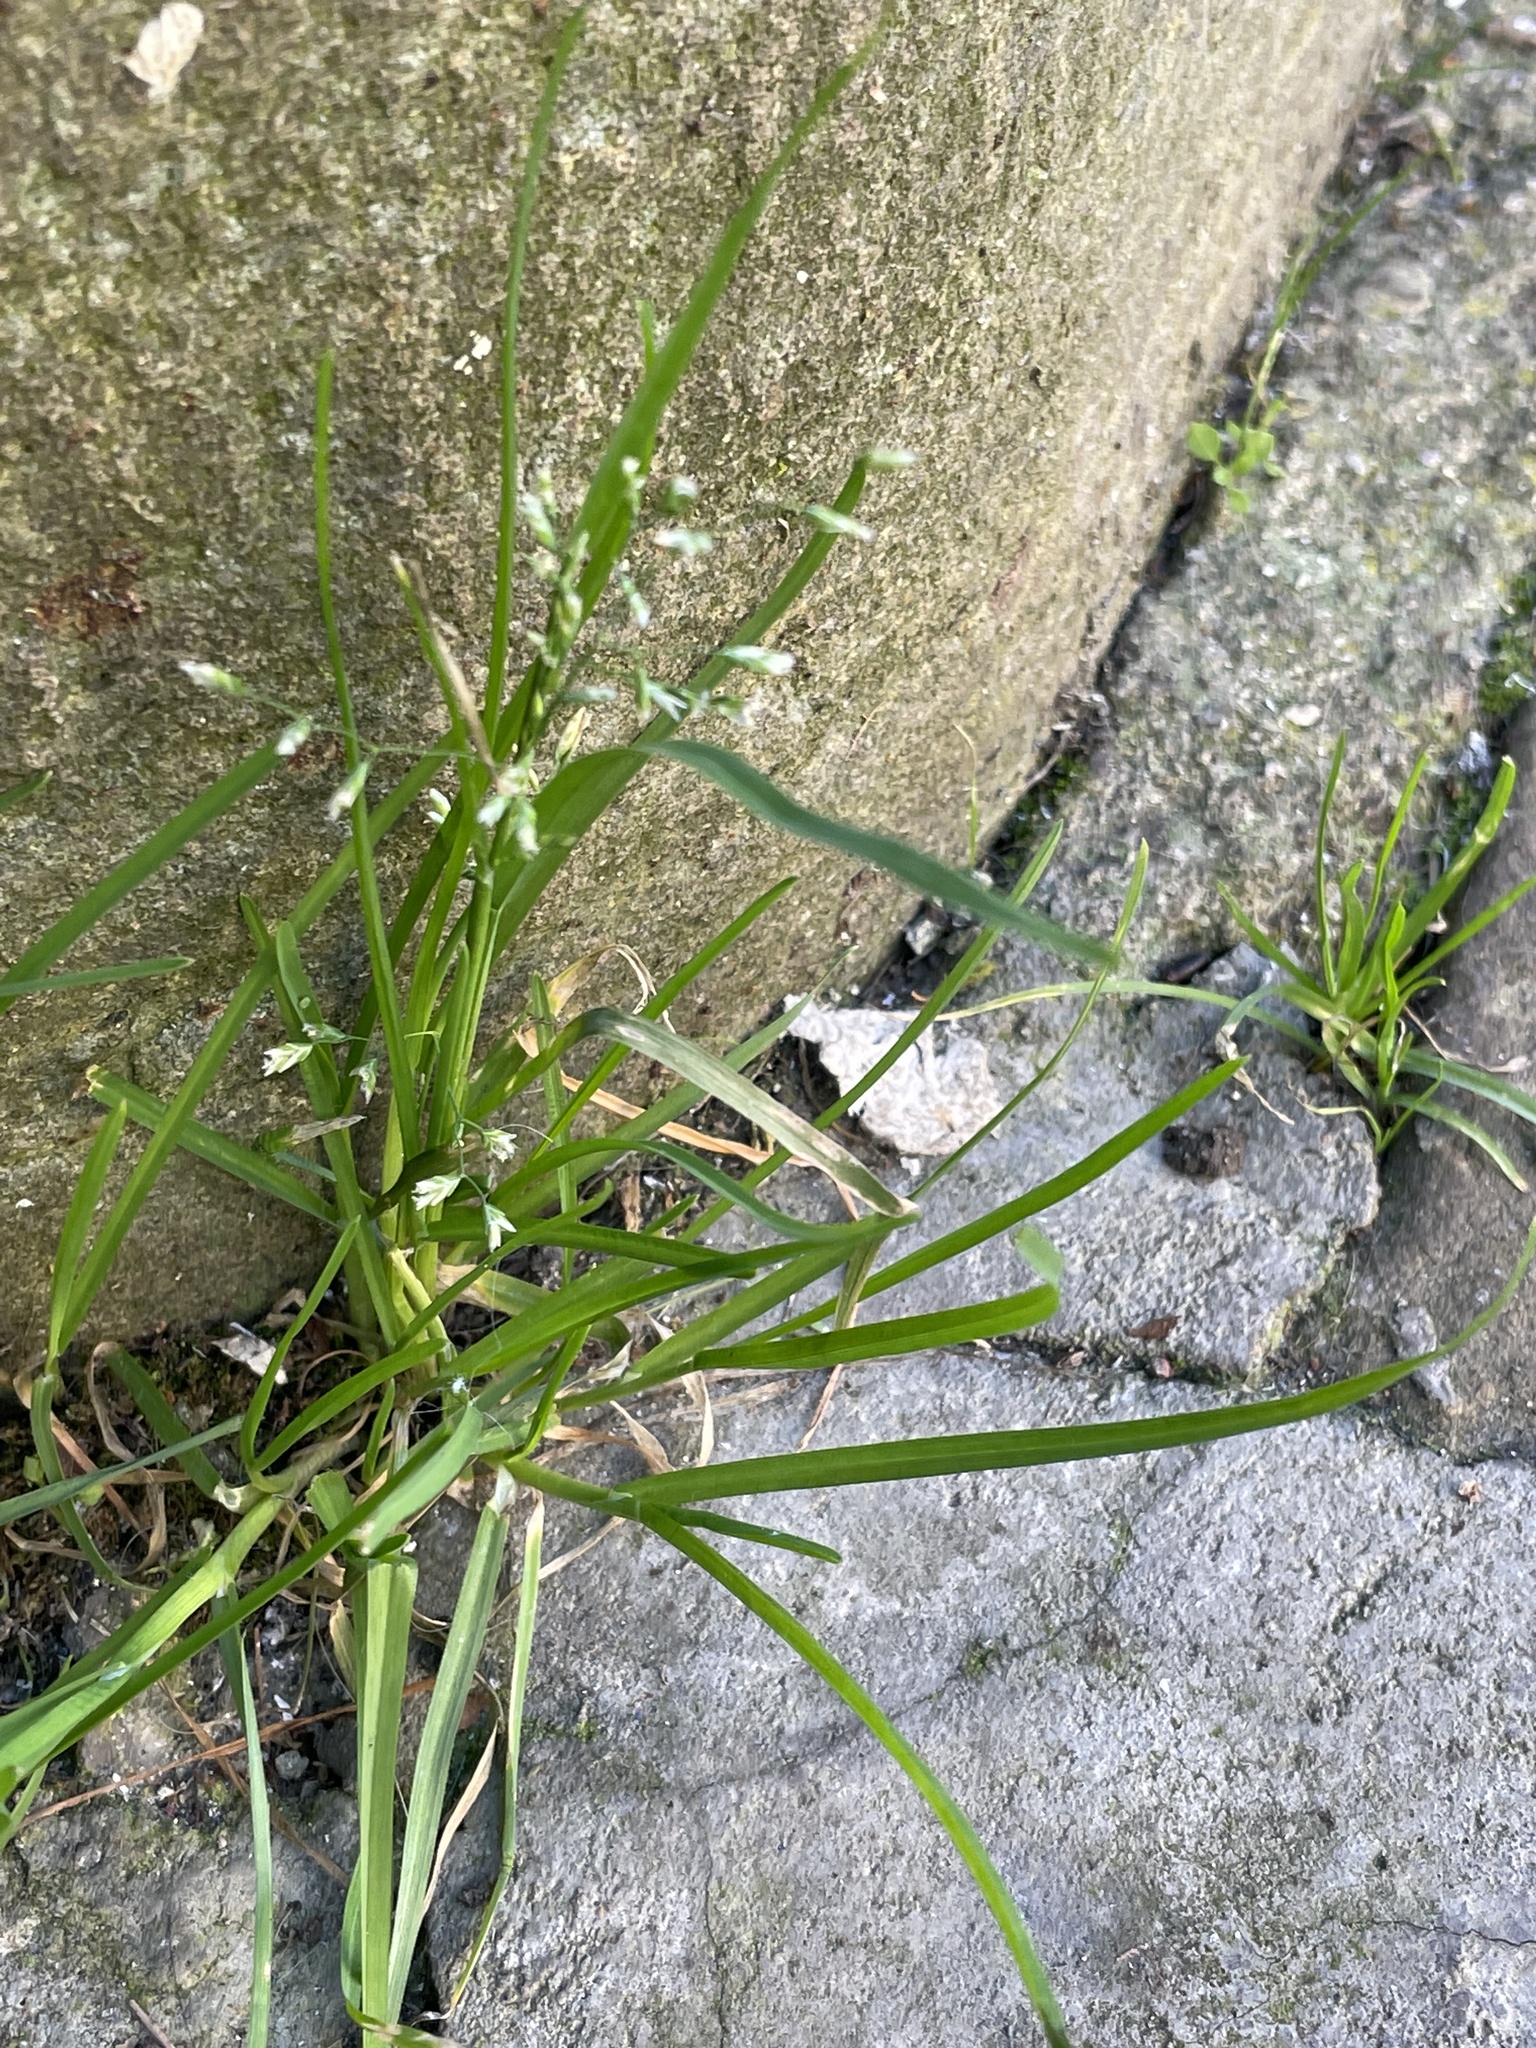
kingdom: Plantae
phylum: Tracheophyta
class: Liliopsida
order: Poales
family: Poaceae
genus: Poa
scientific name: Poa annua
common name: Annual bluegrass
